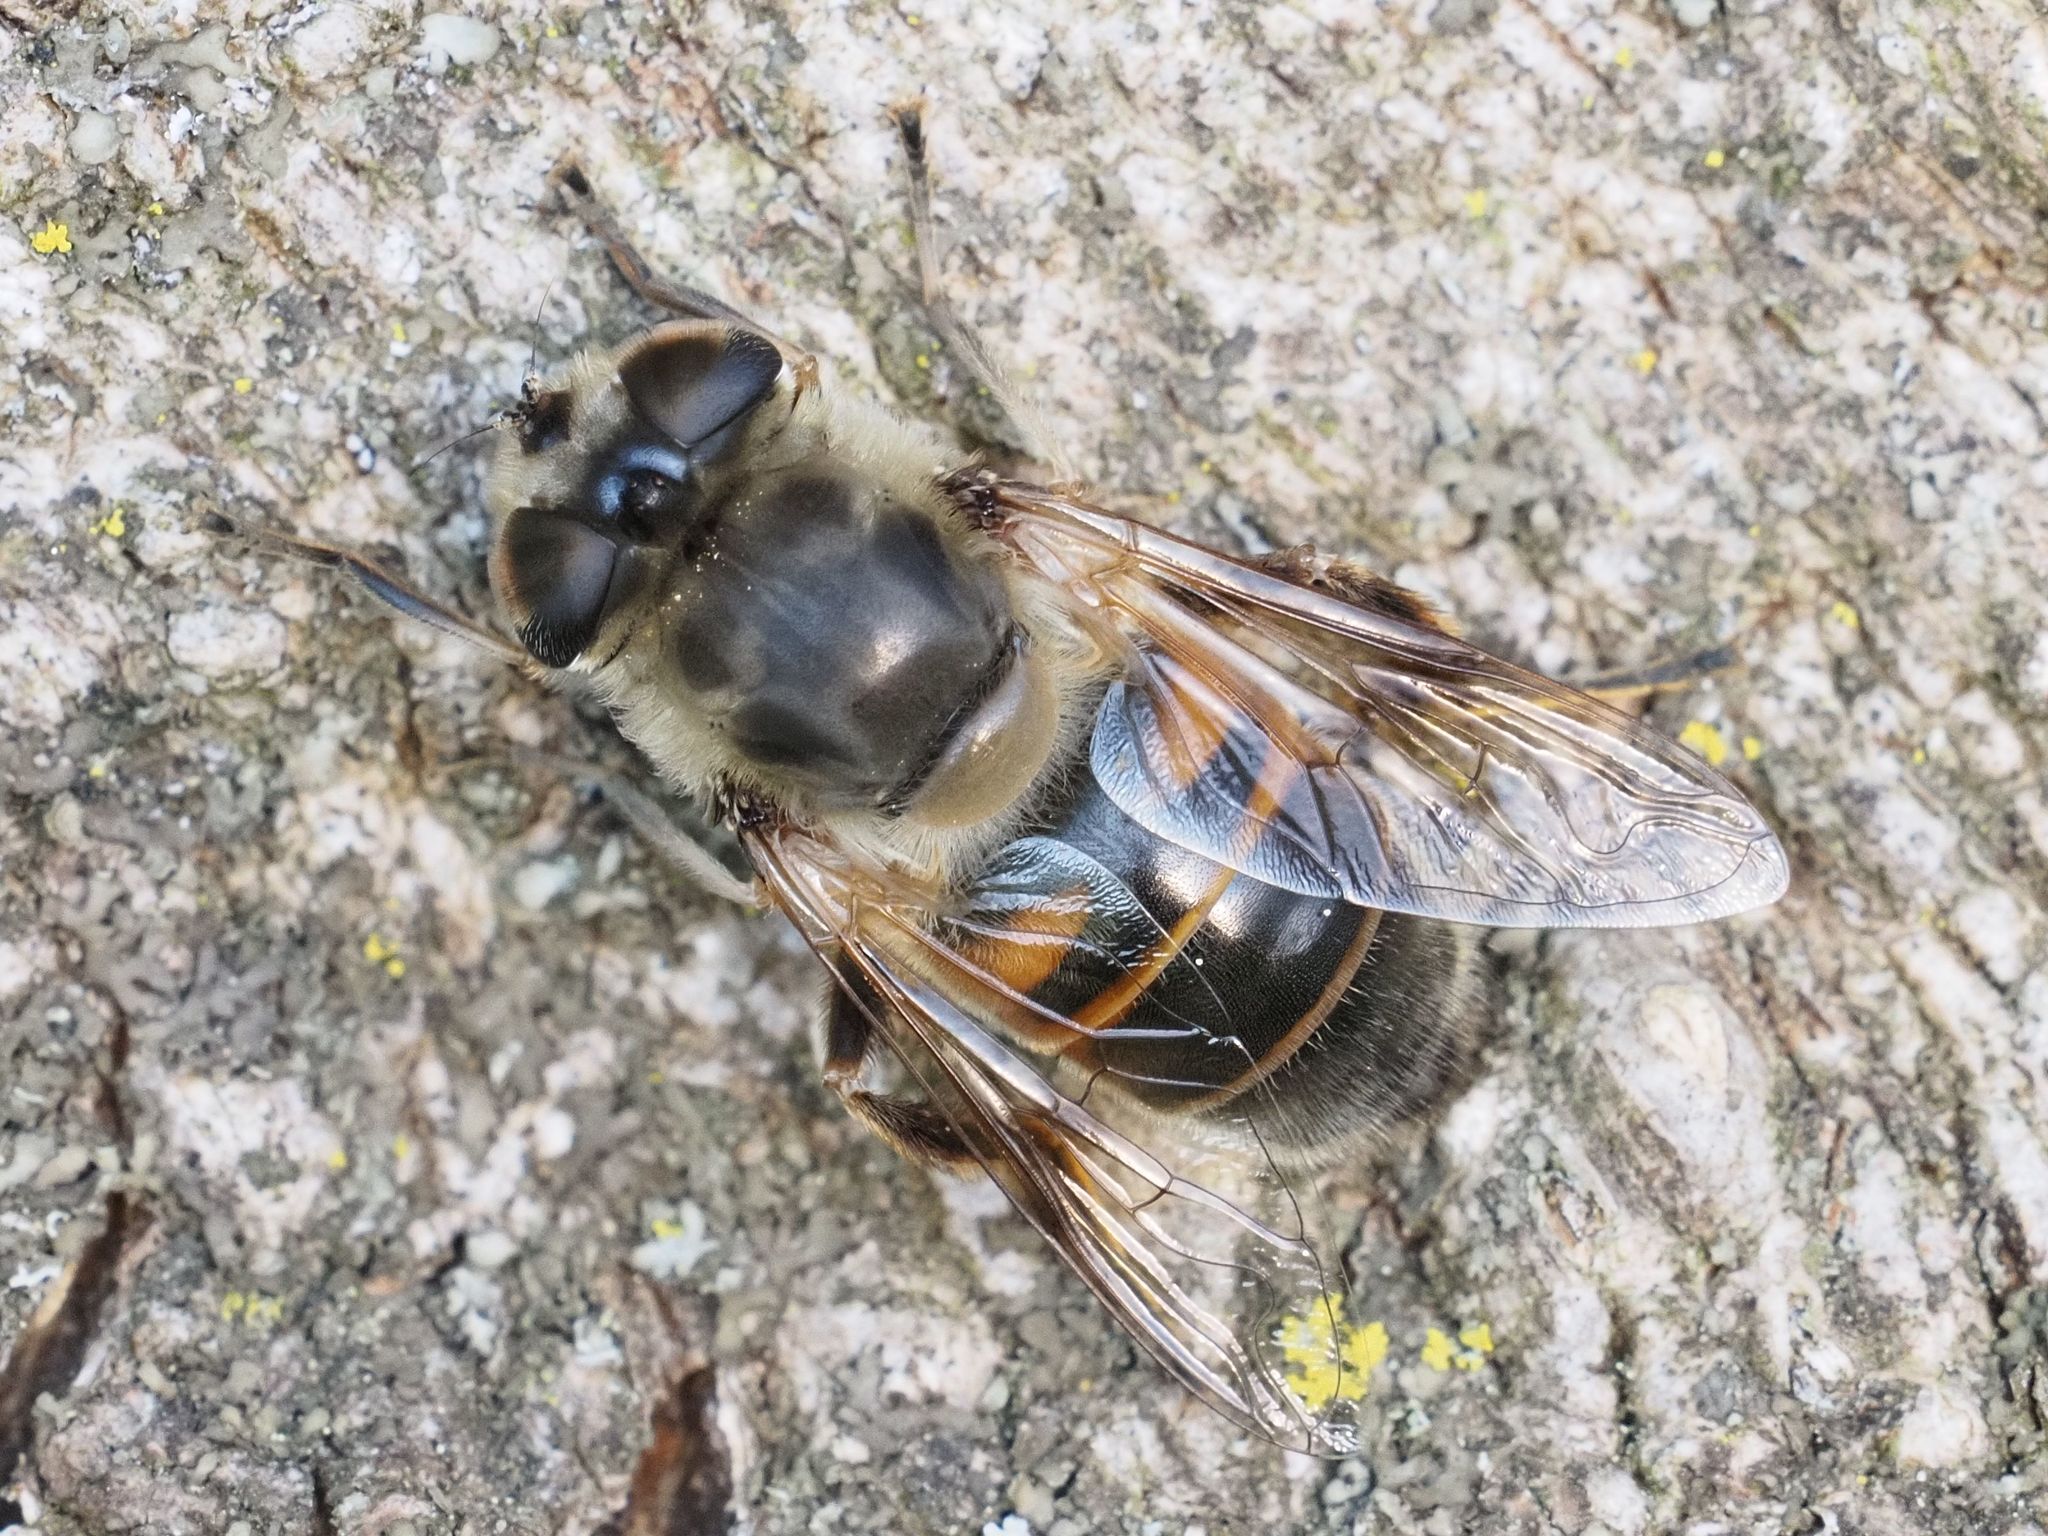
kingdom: Animalia
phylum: Arthropoda
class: Insecta
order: Diptera
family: Syrphidae
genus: Eristalis
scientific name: Eristalis tenax
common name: Drone fly
